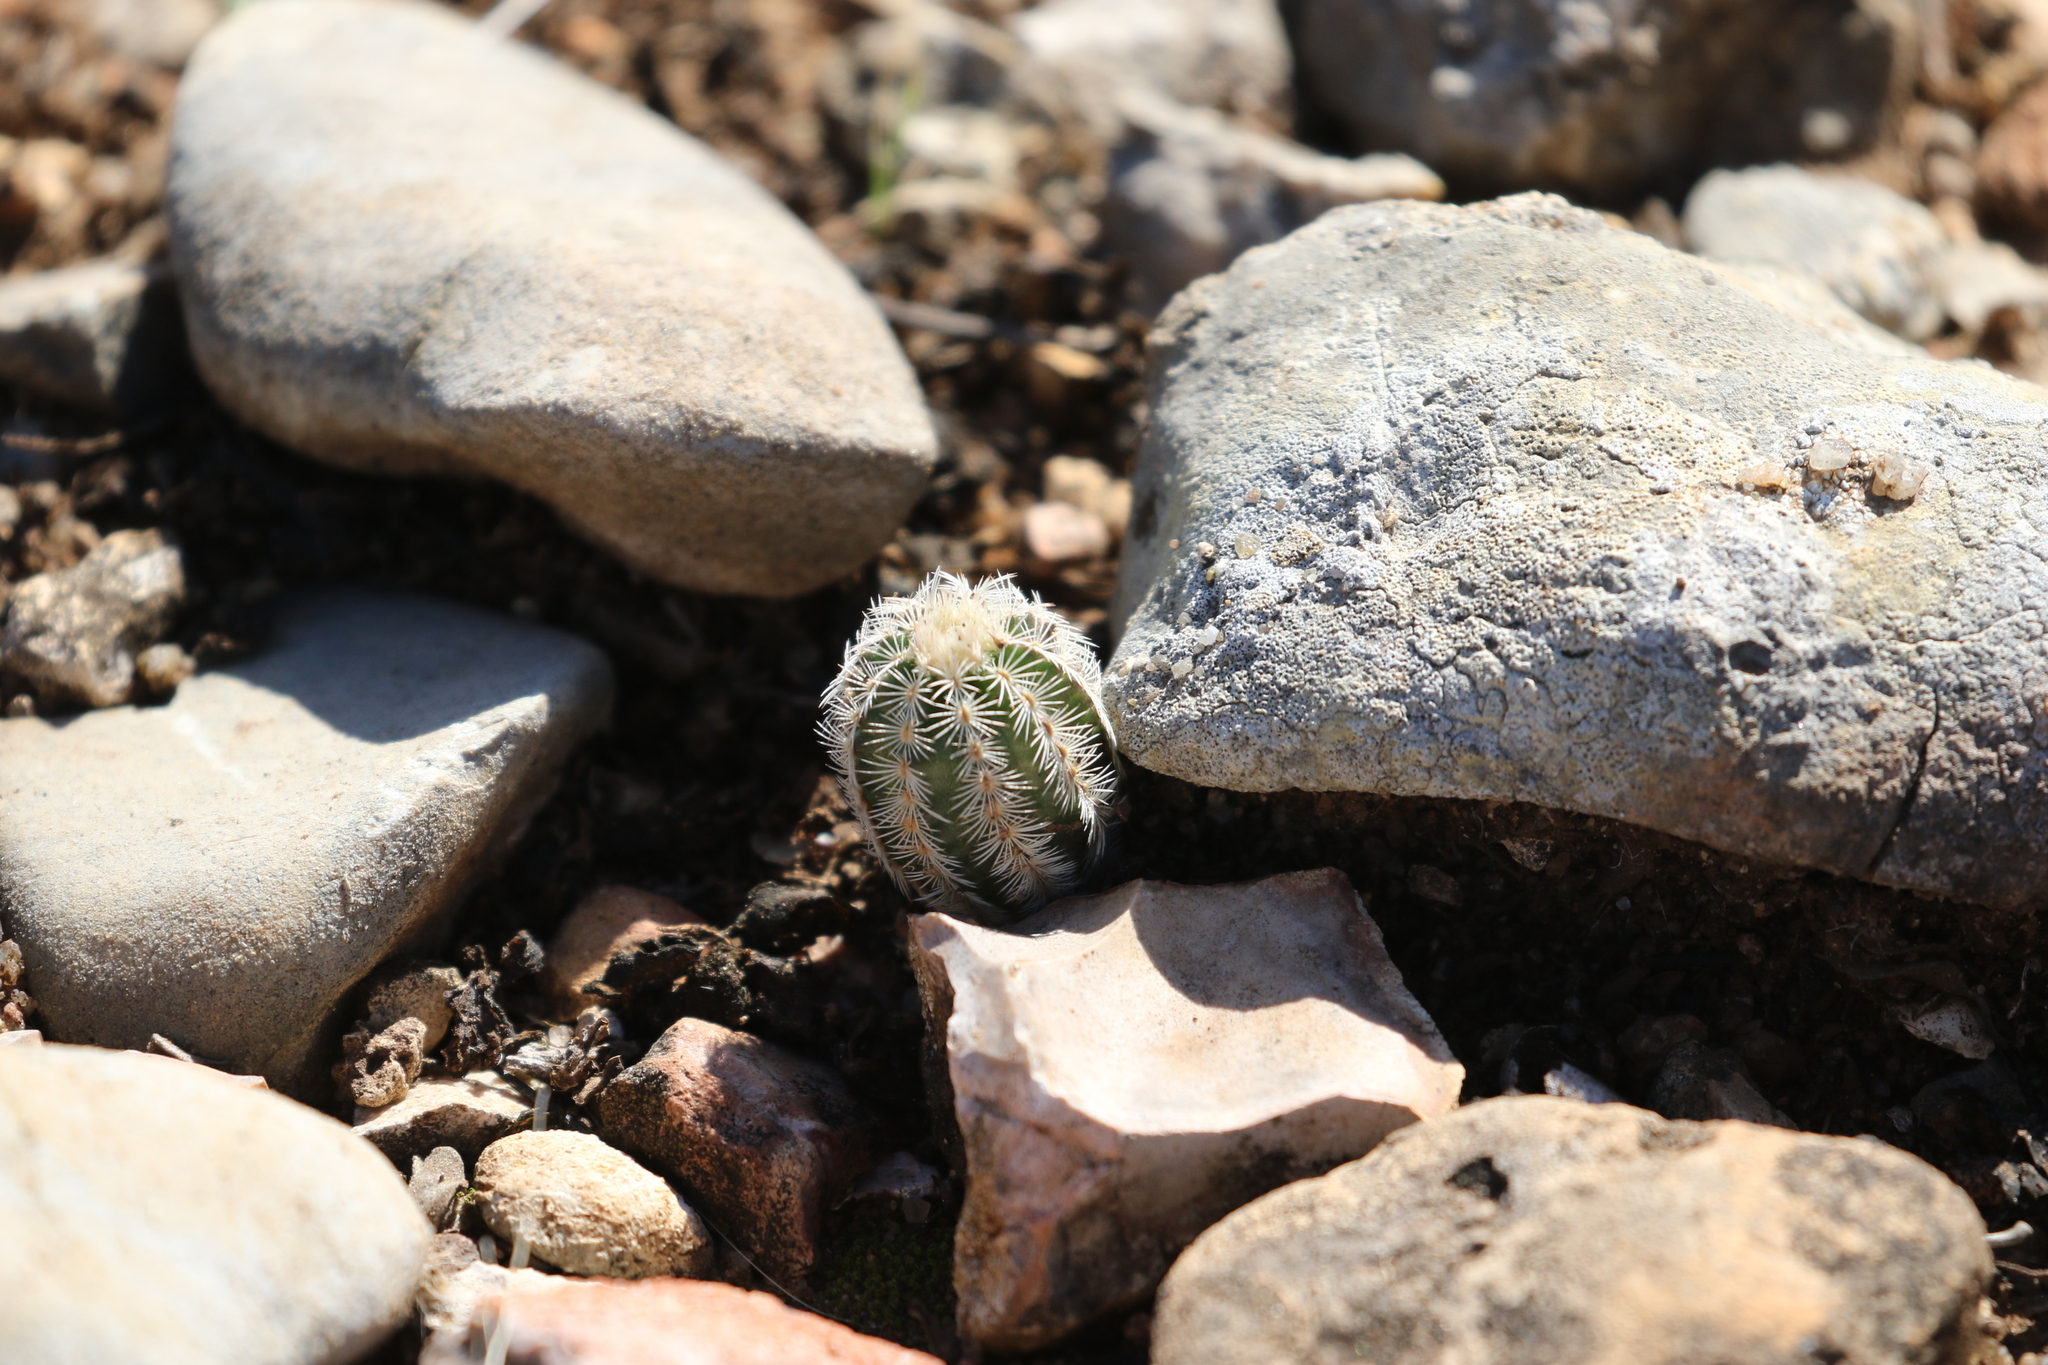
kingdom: Plantae
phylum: Tracheophyta
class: Magnoliopsida
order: Caryophyllales
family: Cactaceae
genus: Echinocereus
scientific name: Echinocereus reichenbachii
